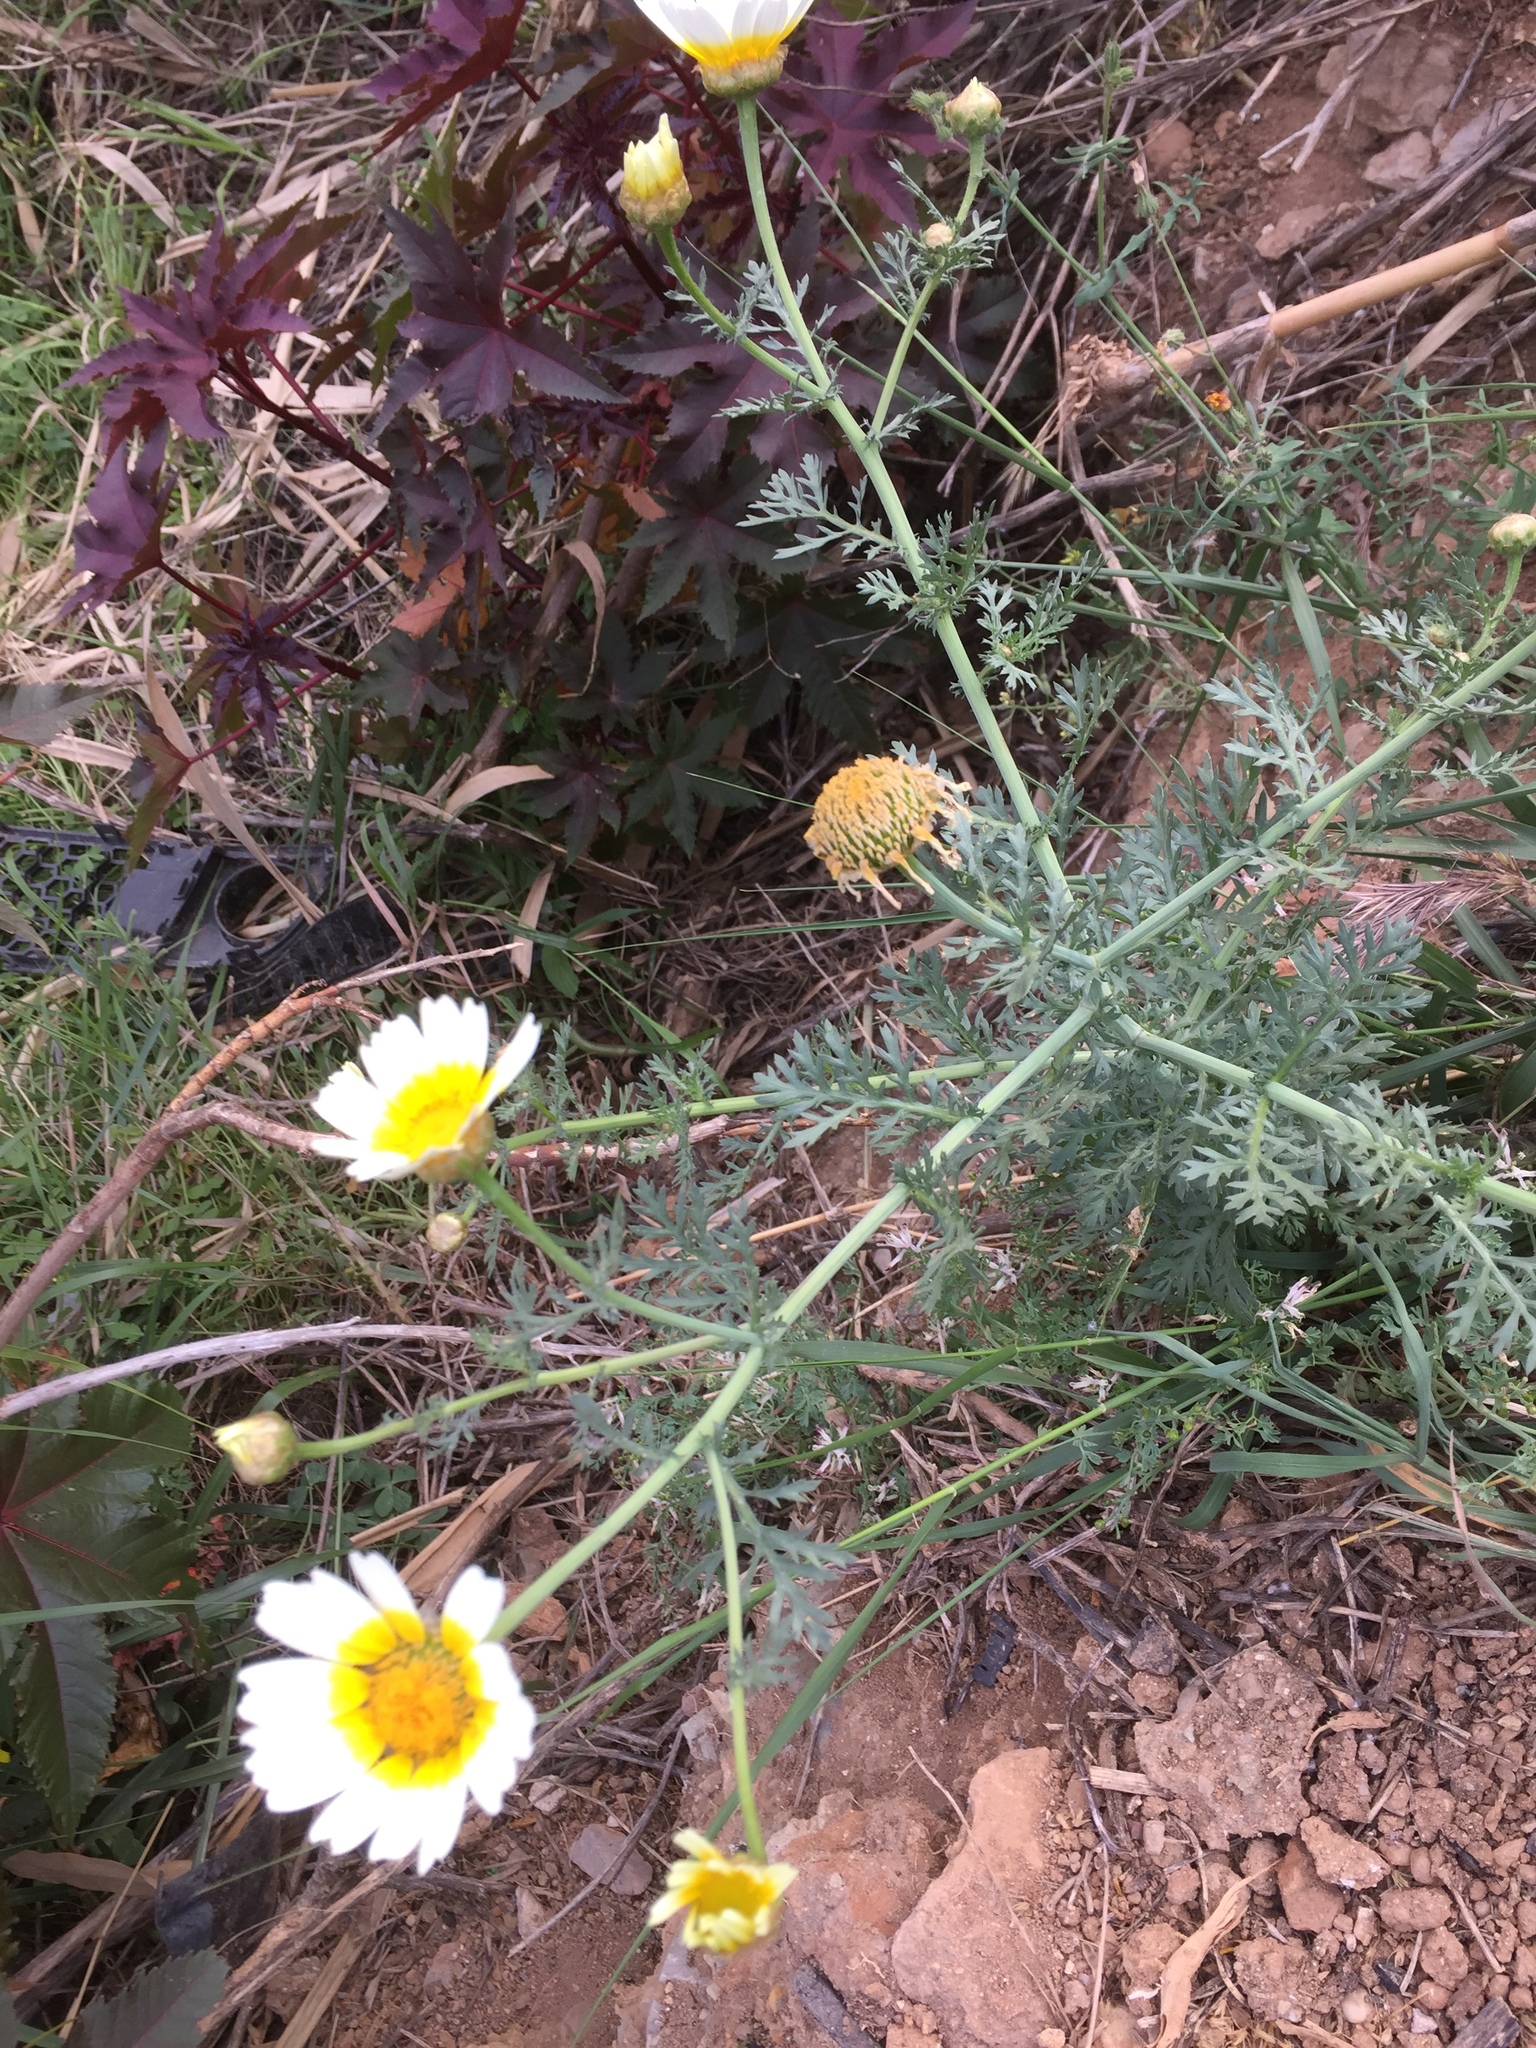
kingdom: Plantae
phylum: Tracheophyta
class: Magnoliopsida
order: Asterales
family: Asteraceae
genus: Glebionis
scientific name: Glebionis coronaria
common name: Crowndaisy
